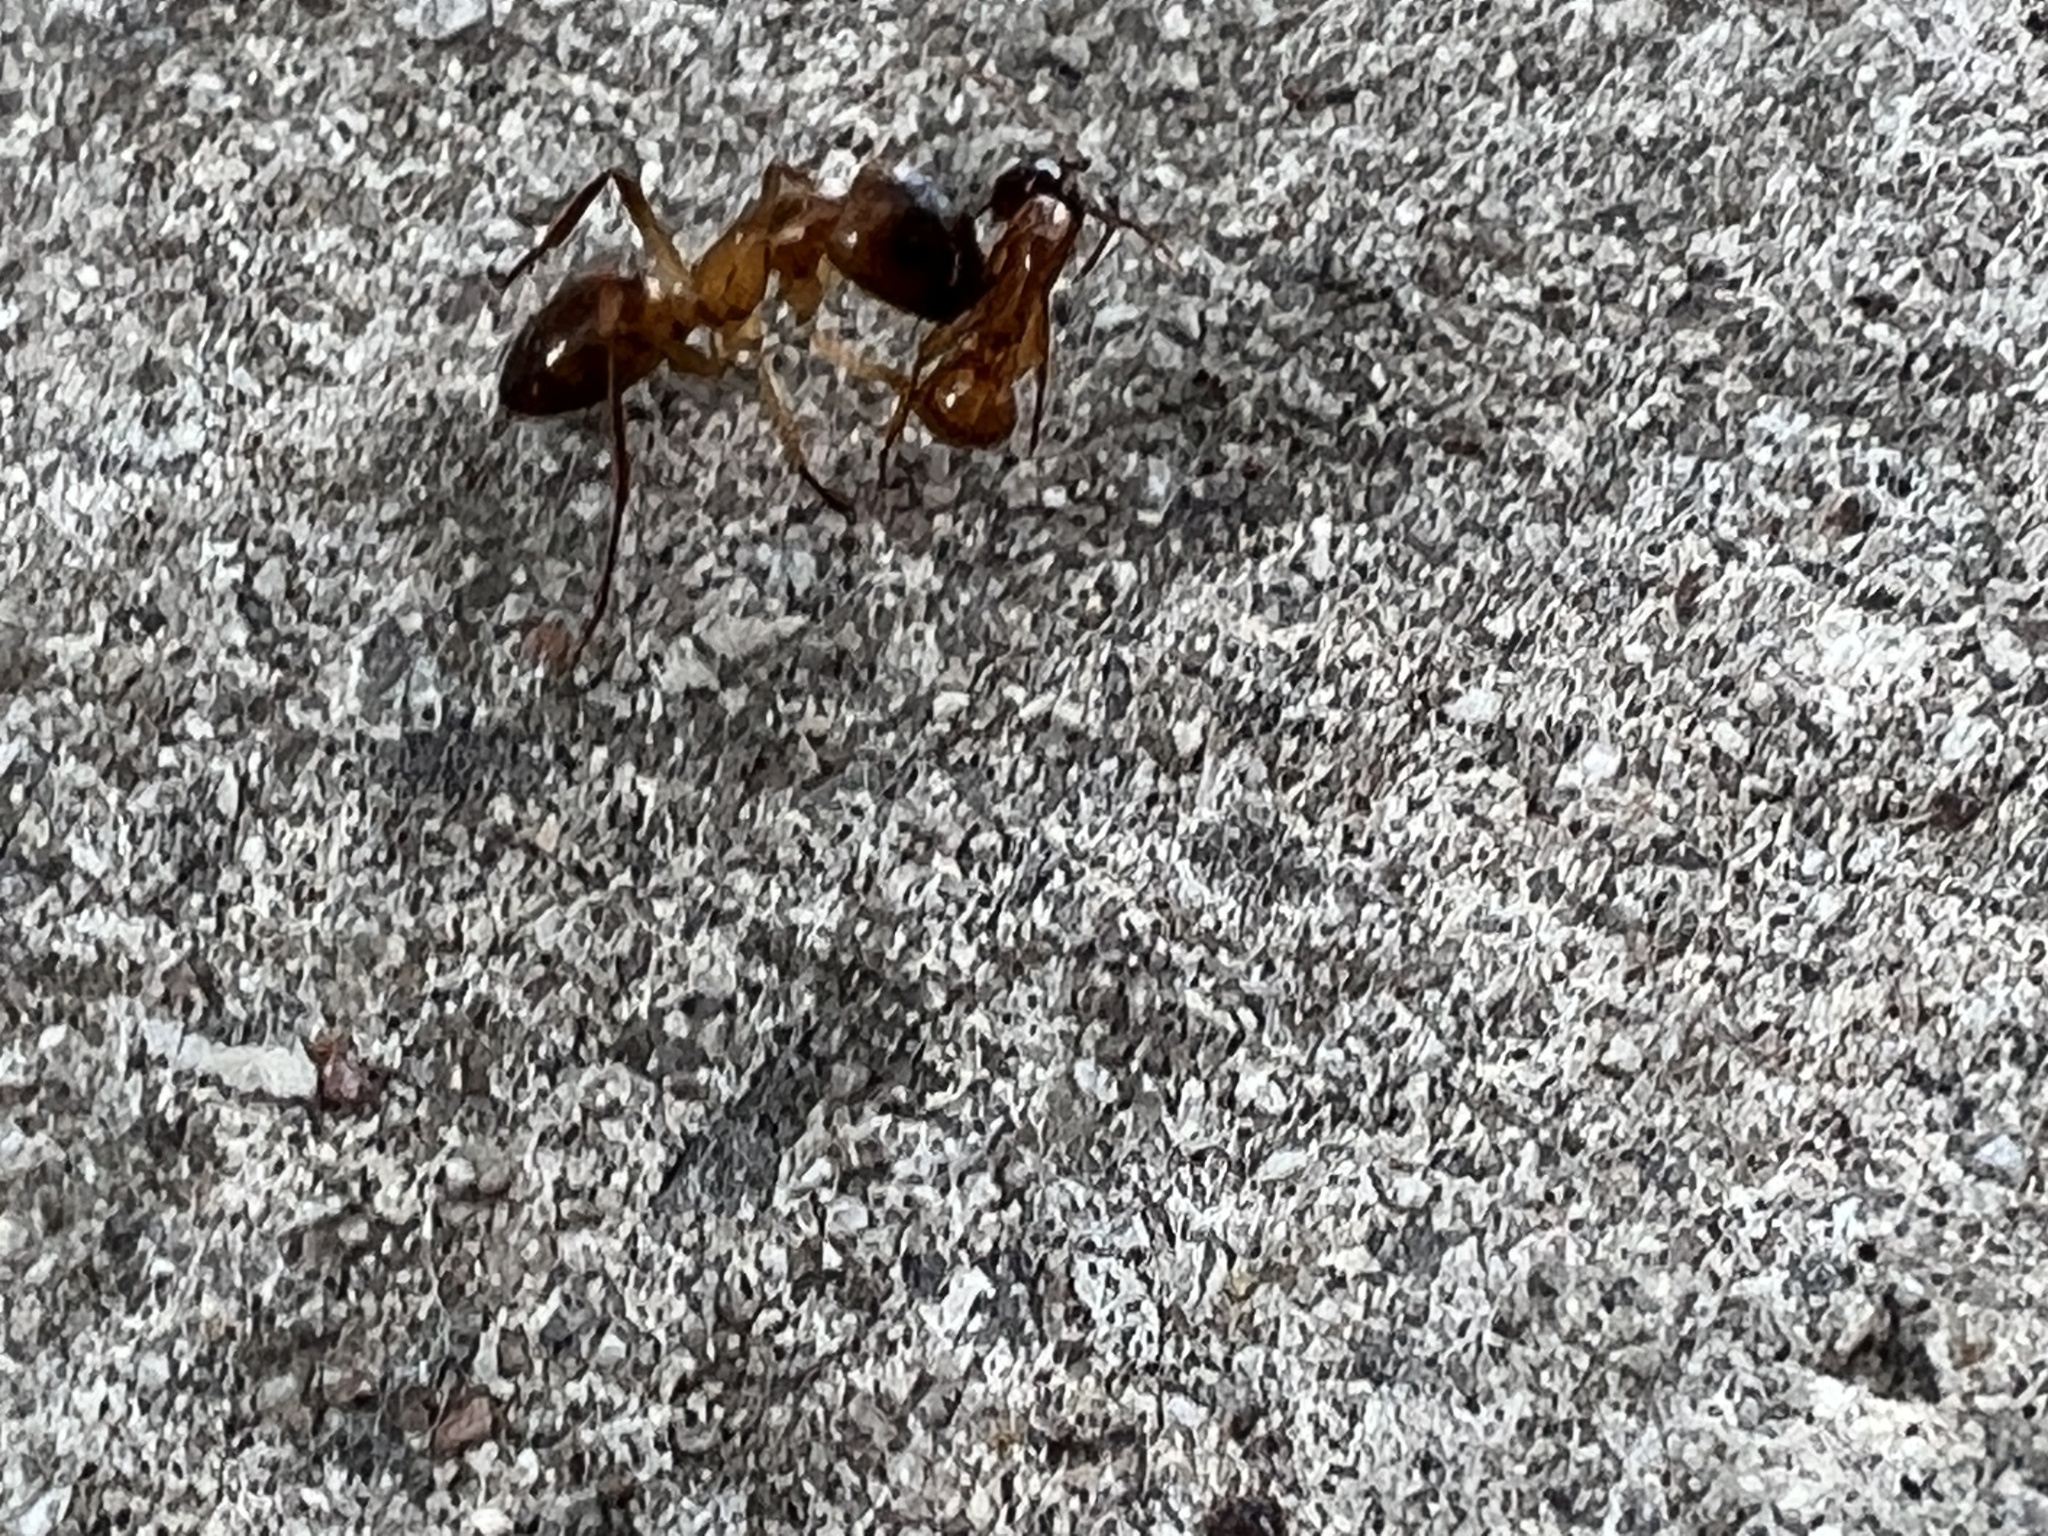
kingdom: Animalia
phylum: Arthropoda
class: Insecta
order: Hymenoptera
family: Formicidae
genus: Camponotus
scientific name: Camponotus festinatus
